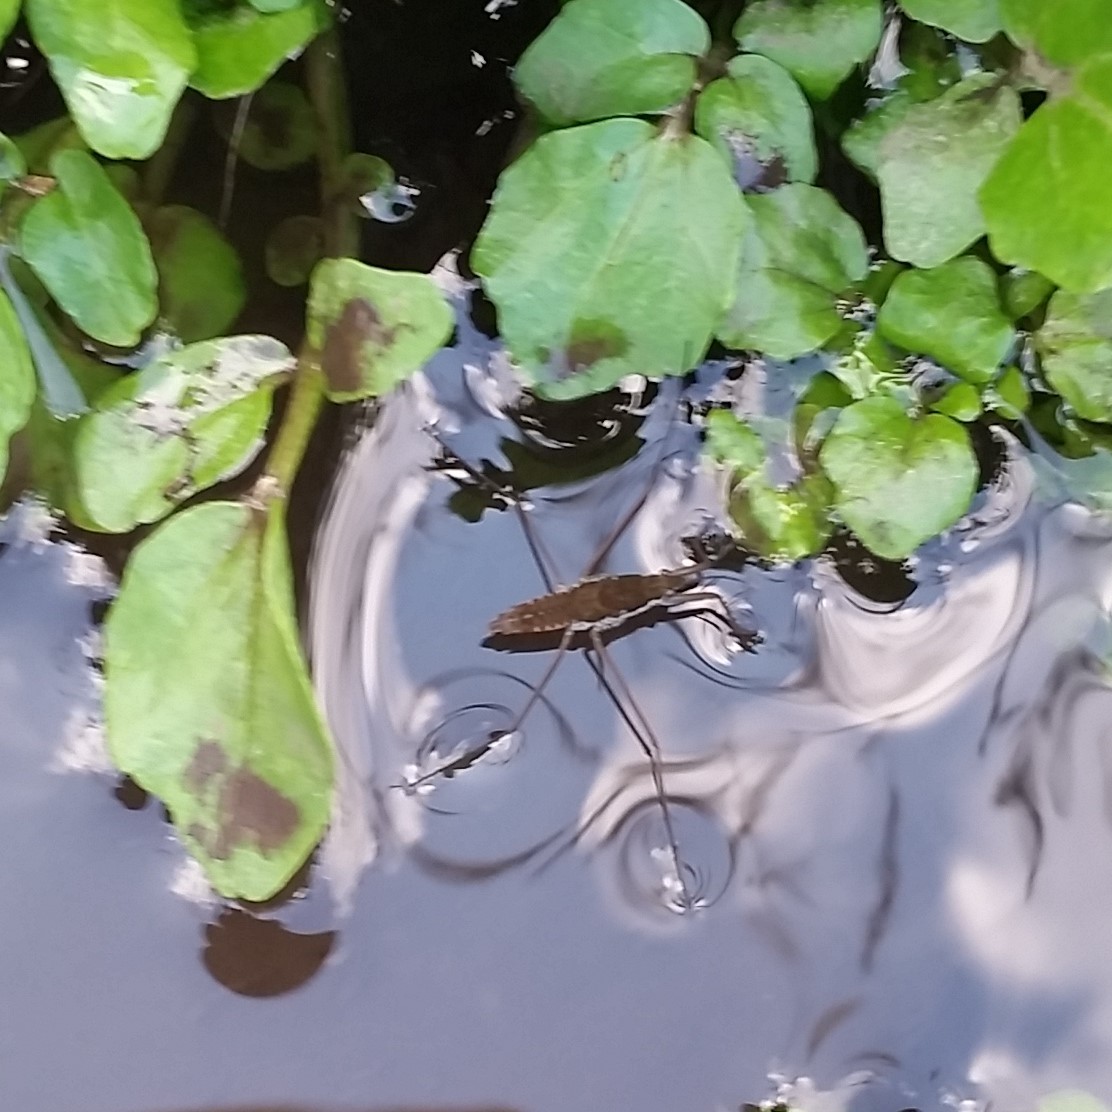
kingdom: Animalia
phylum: Arthropoda
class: Insecta
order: Hemiptera
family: Gerridae
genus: Aquarius
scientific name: Aquarius remigis
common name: Common water strider
